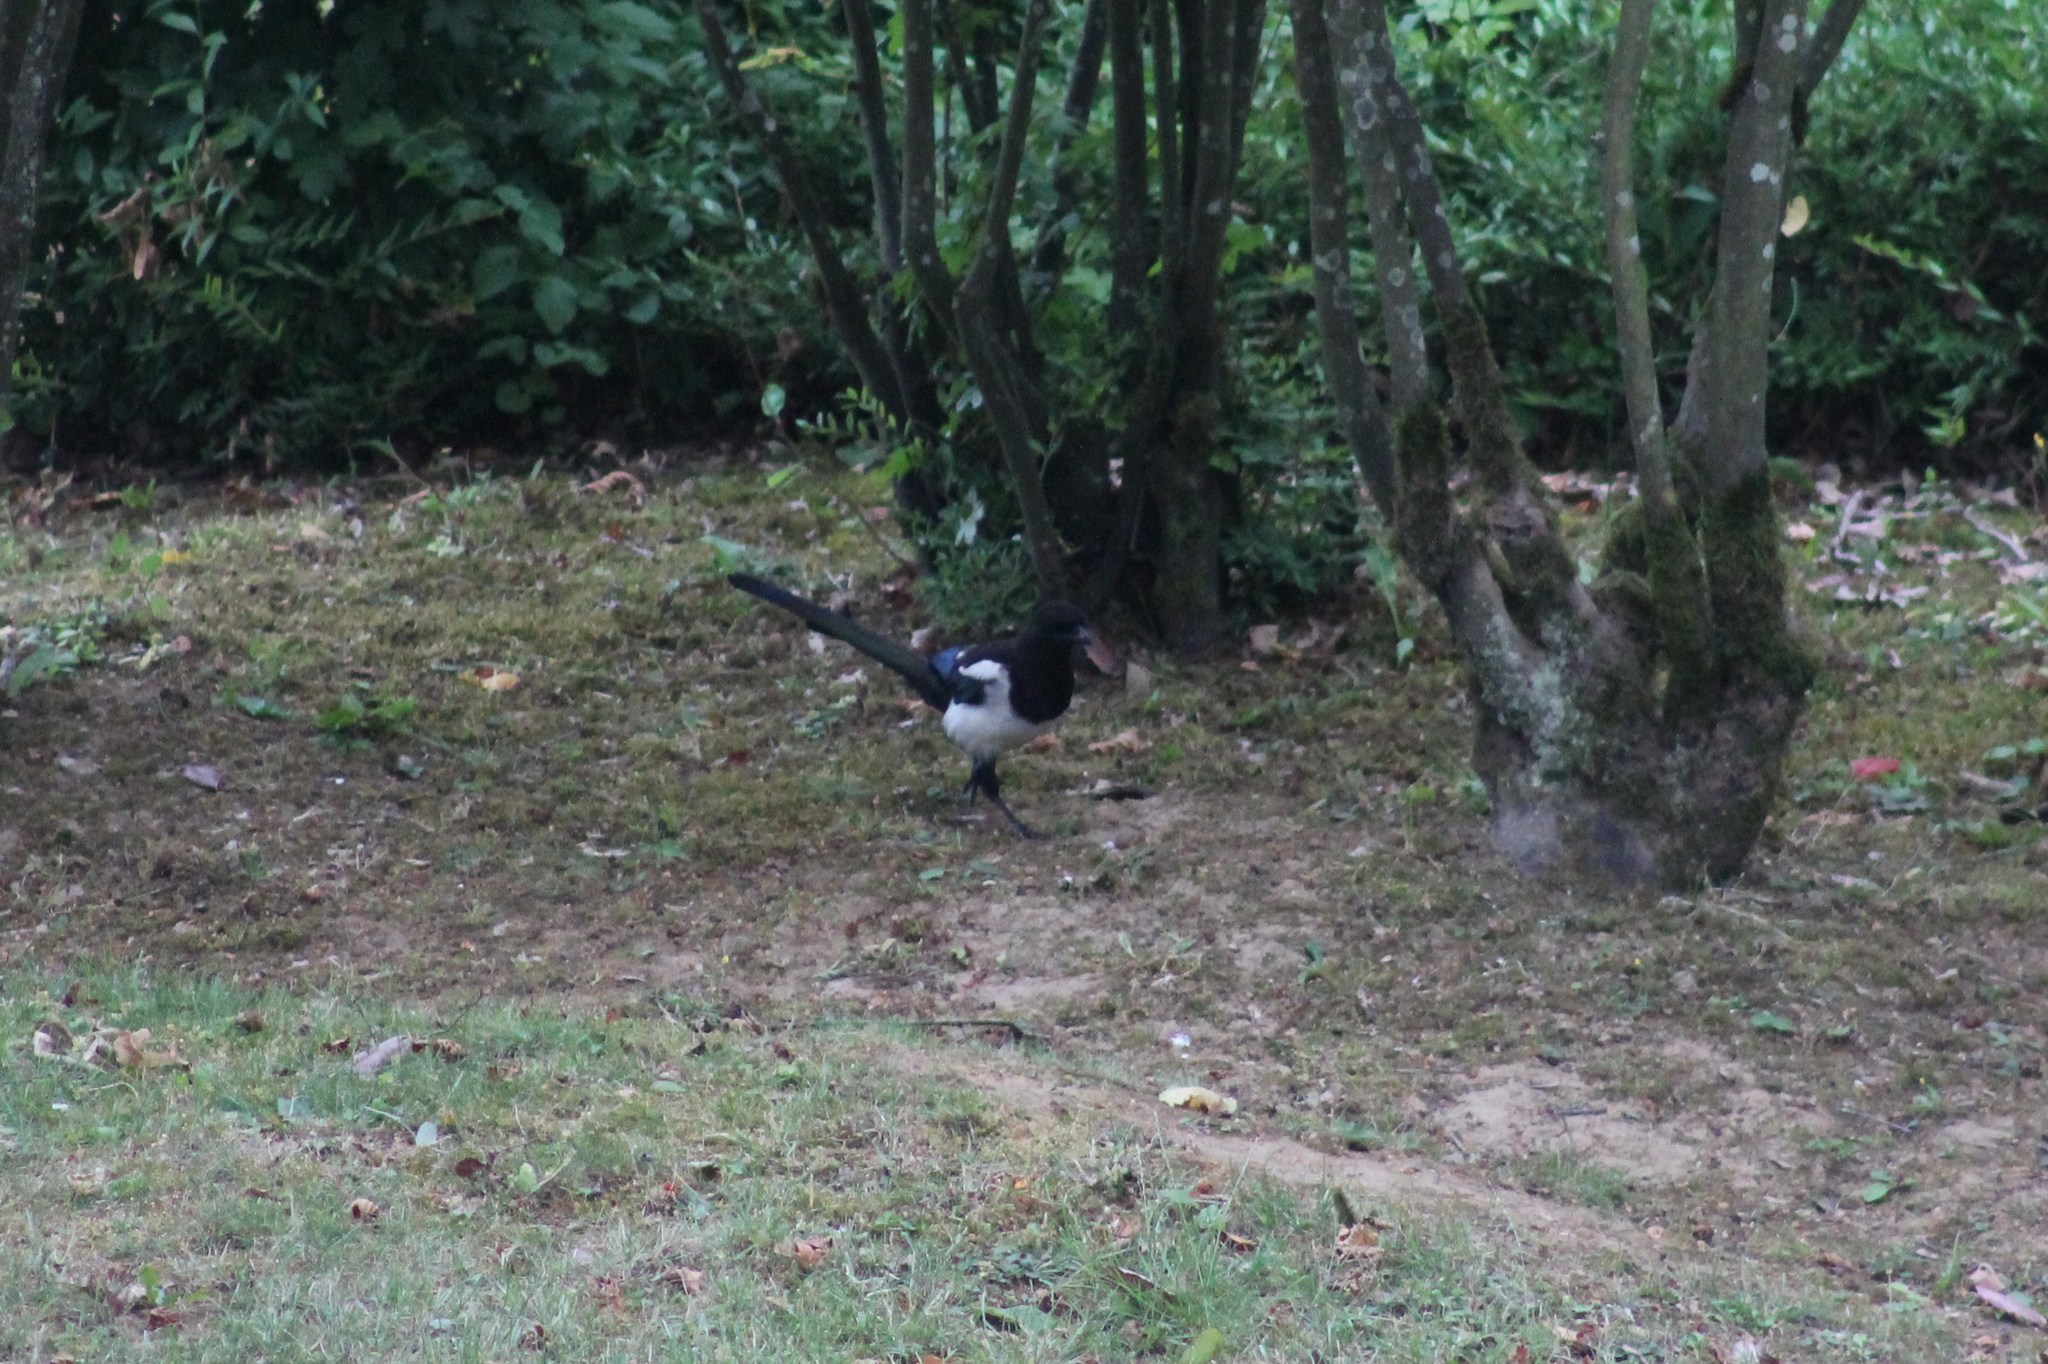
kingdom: Animalia
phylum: Chordata
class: Aves
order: Passeriformes
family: Corvidae
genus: Pica
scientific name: Pica pica
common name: Eurasian magpie
